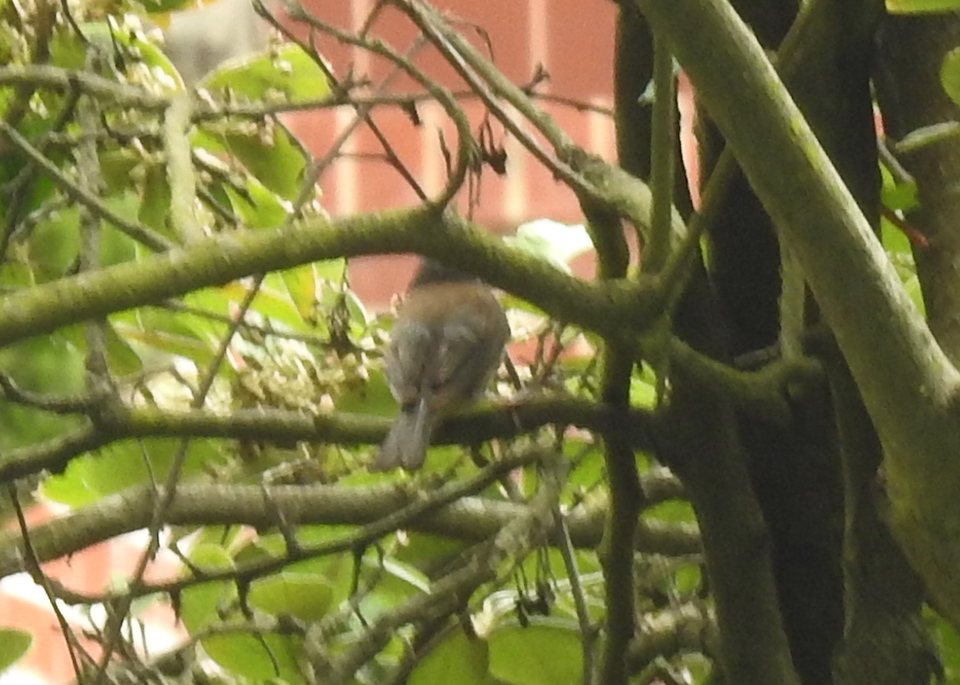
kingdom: Animalia
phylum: Chordata
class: Aves
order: Passeriformes
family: Passerellidae
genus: Junco
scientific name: Junco hyemalis
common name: Dark-eyed junco
